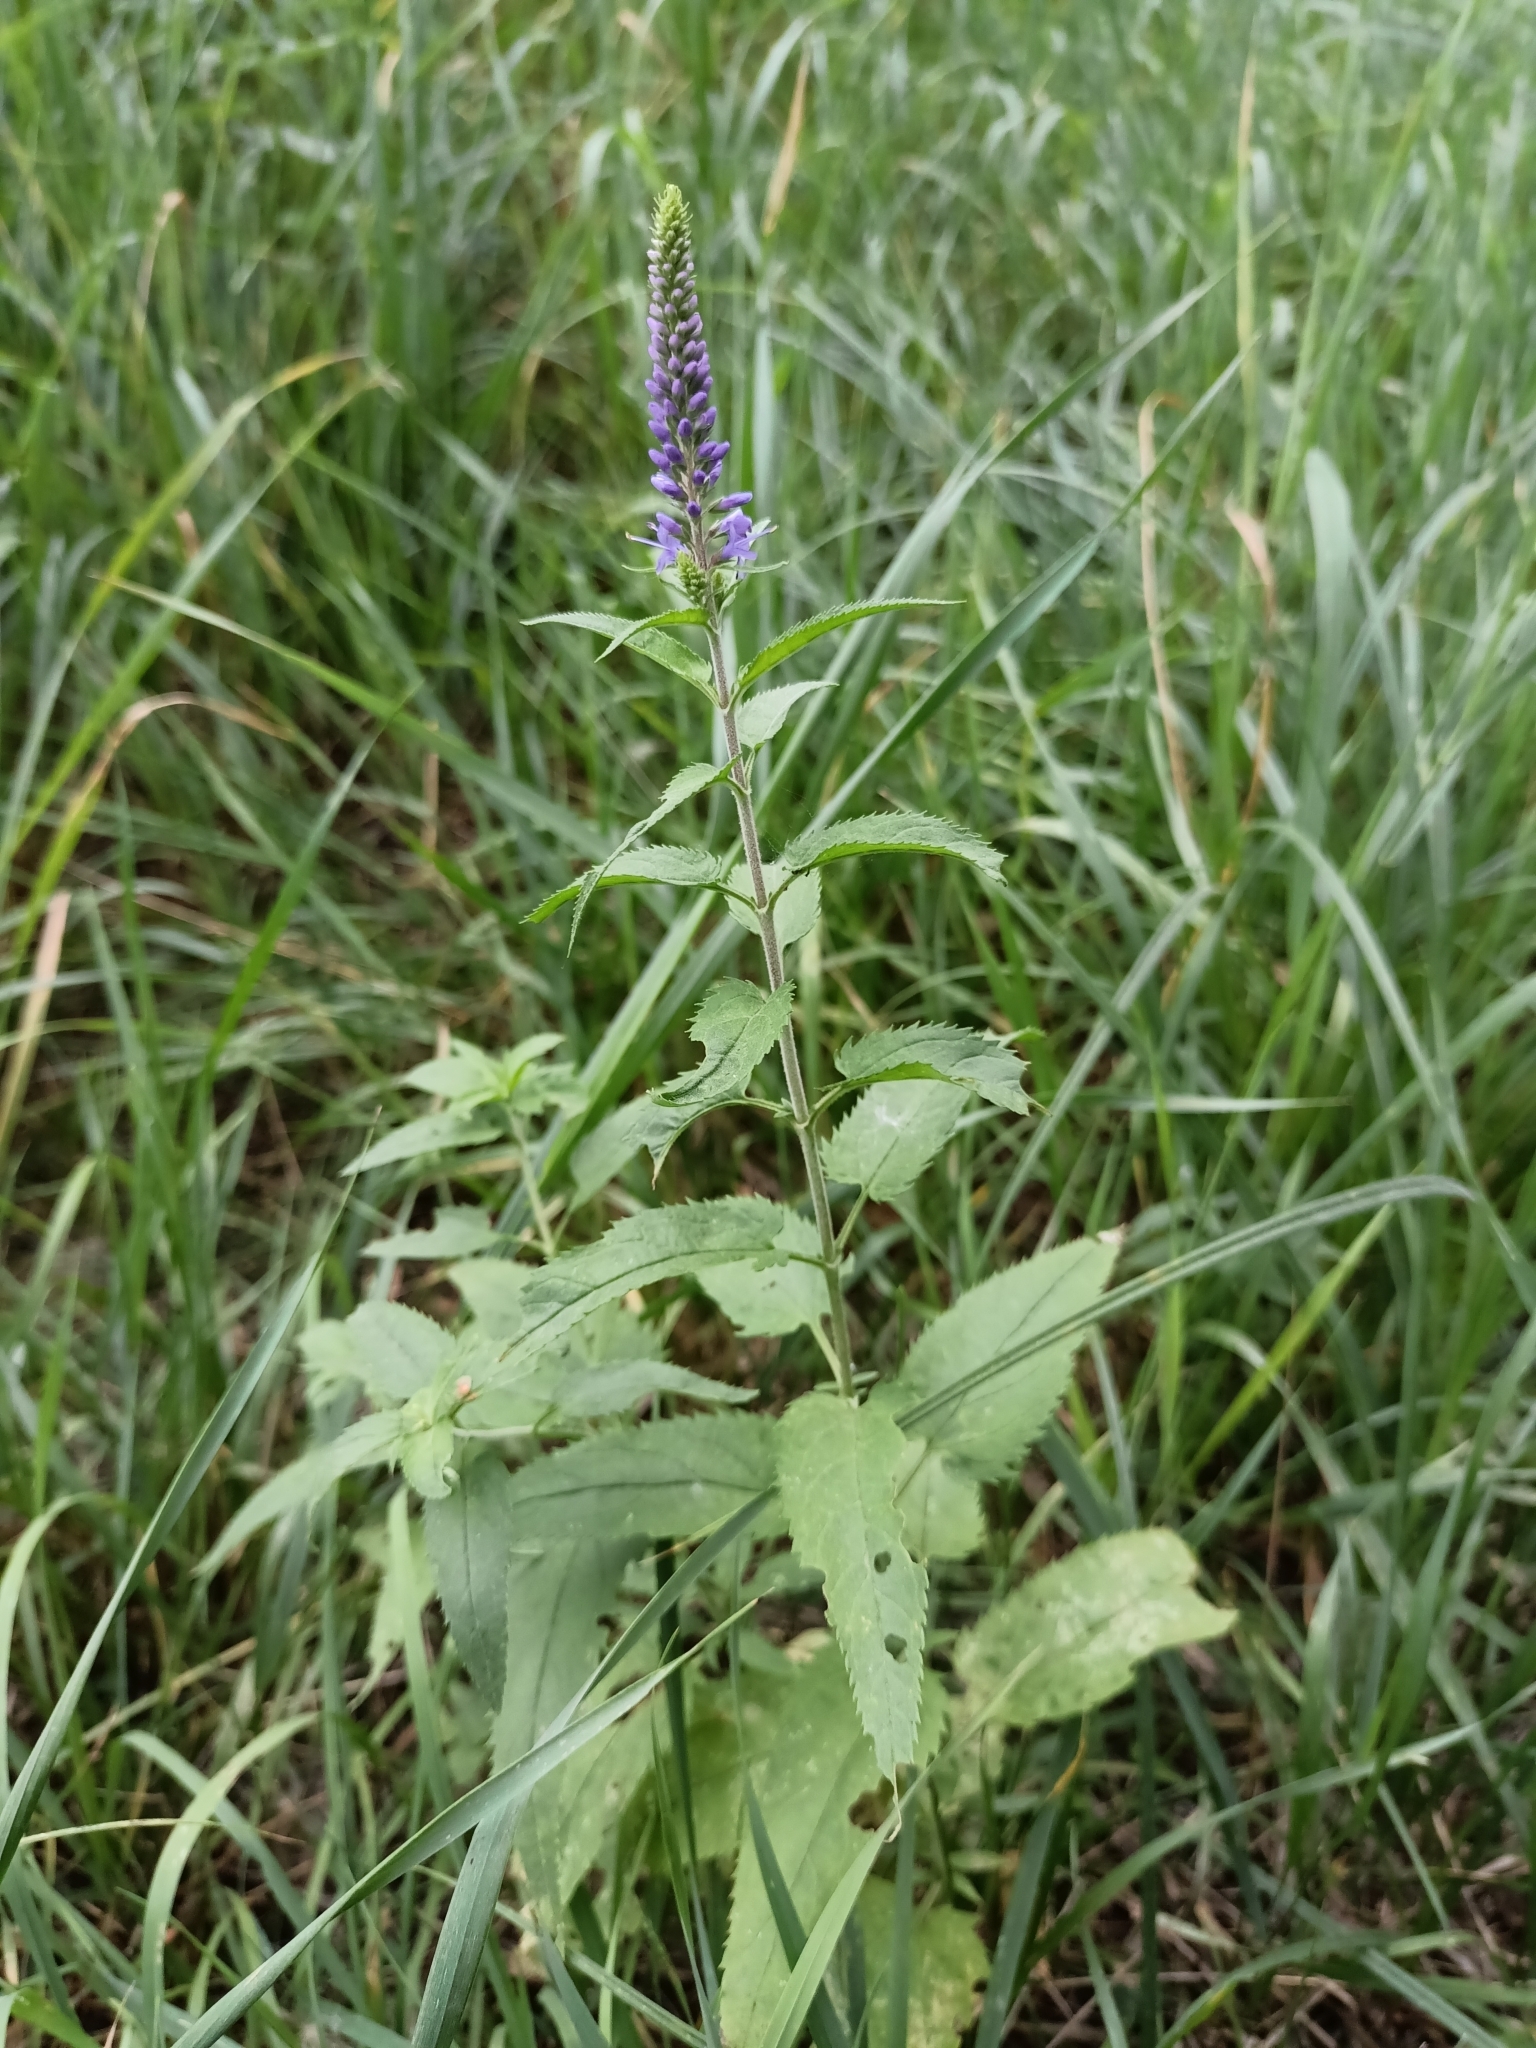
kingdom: Plantae
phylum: Tracheophyta
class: Magnoliopsida
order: Lamiales
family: Plantaginaceae
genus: Veronica
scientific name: Veronica longifolia
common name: Garden speedwell
